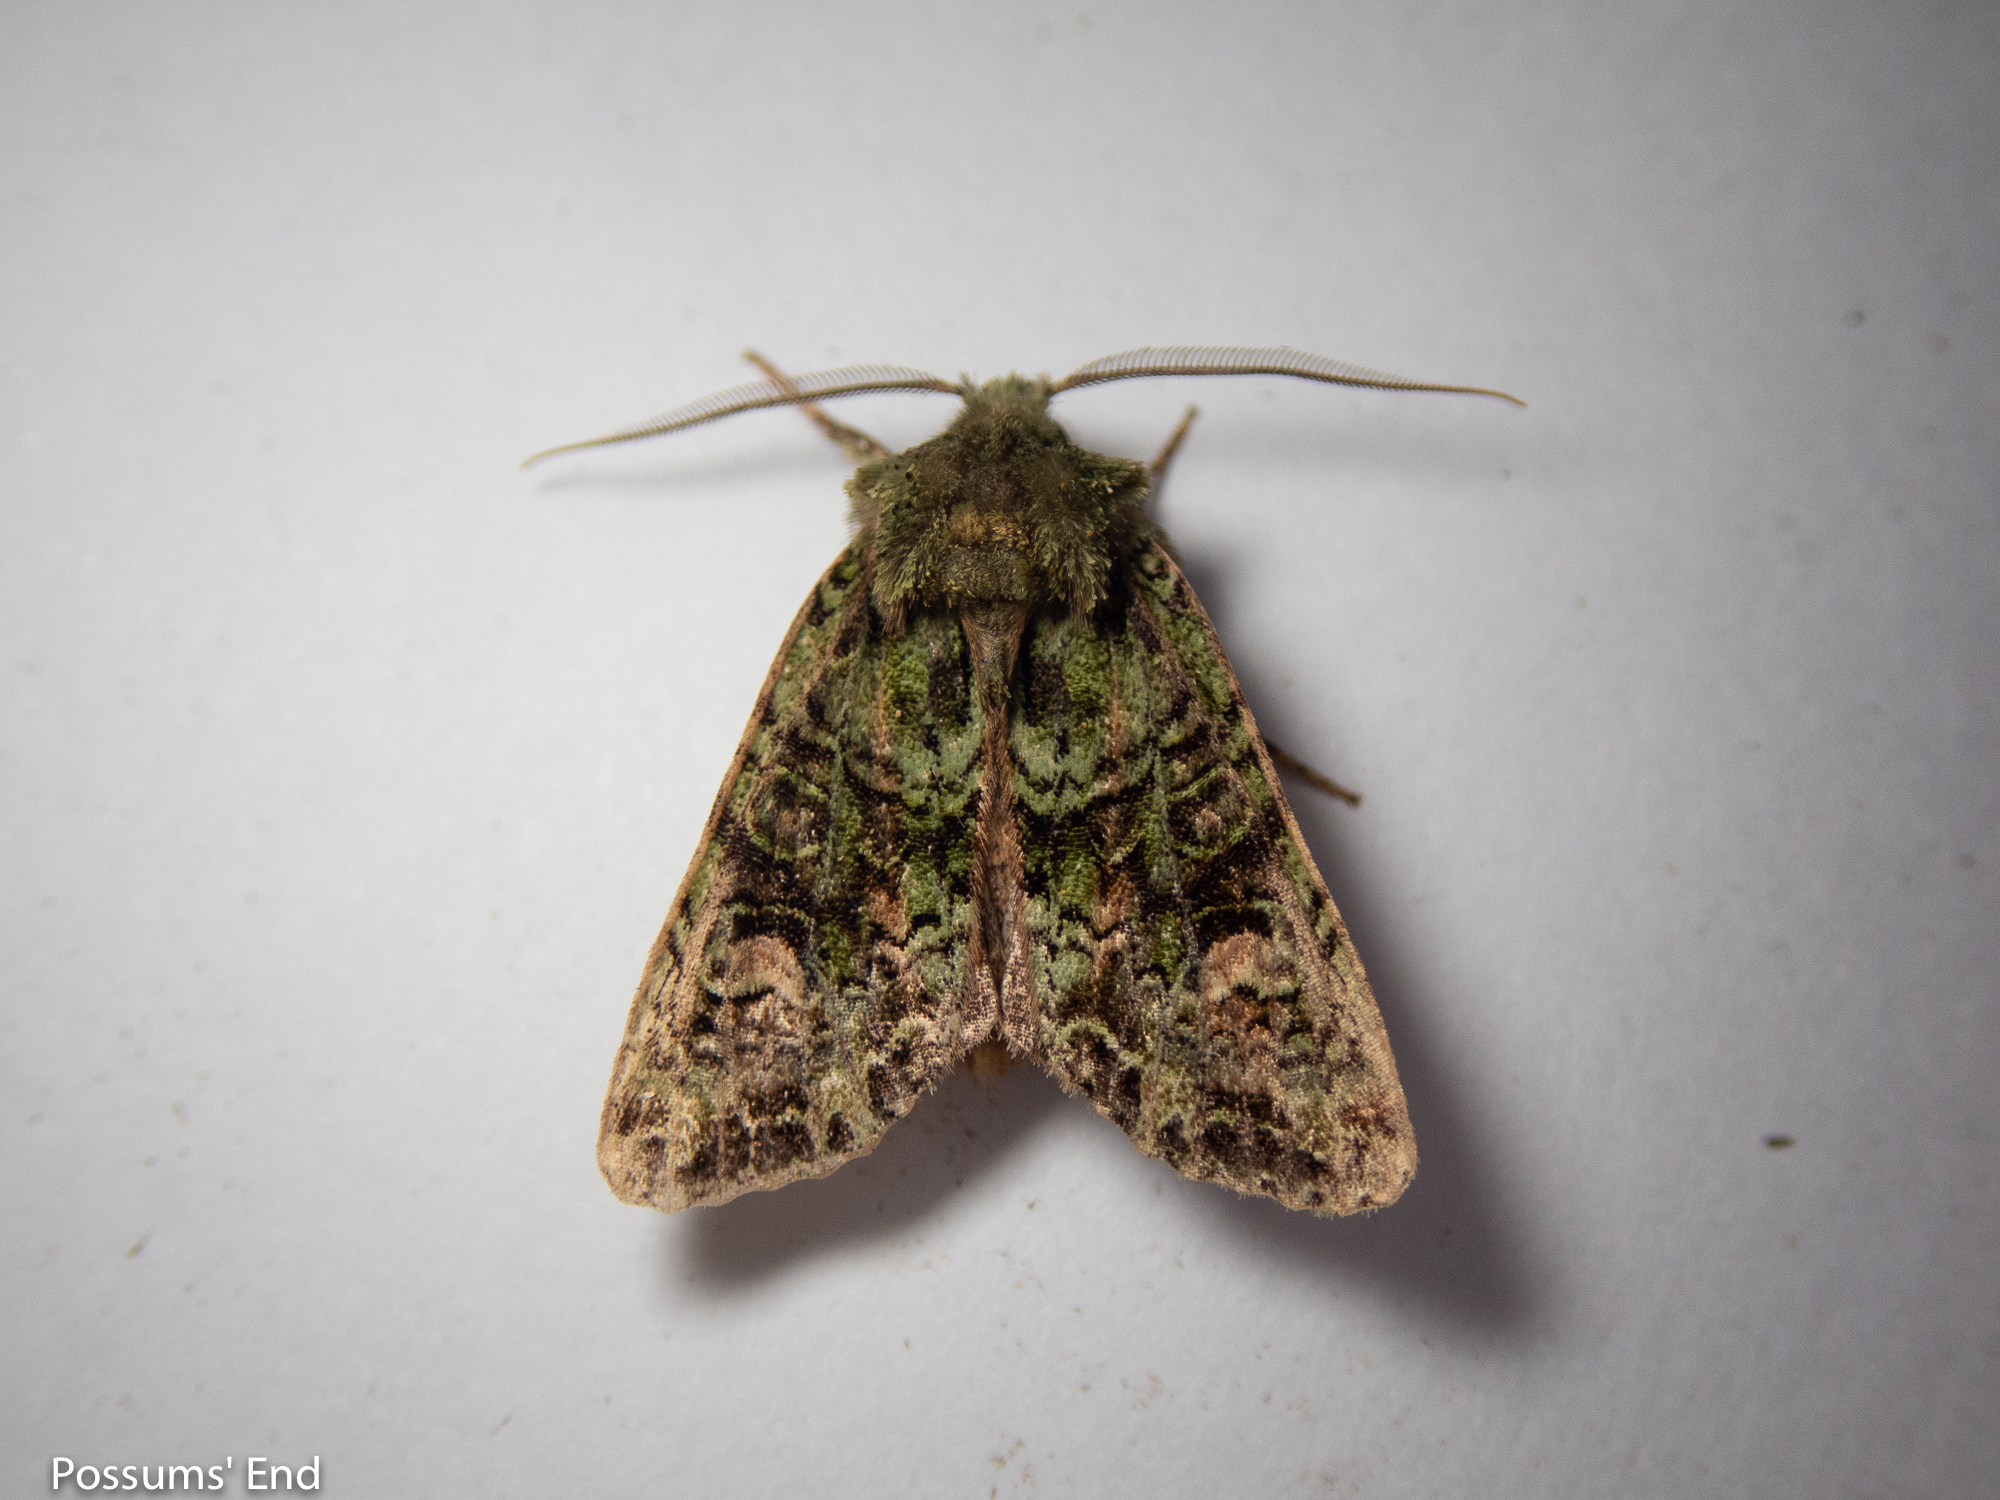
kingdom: Animalia
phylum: Arthropoda
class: Insecta
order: Lepidoptera
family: Noctuidae
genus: Ichneutica
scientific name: Ichneutica
